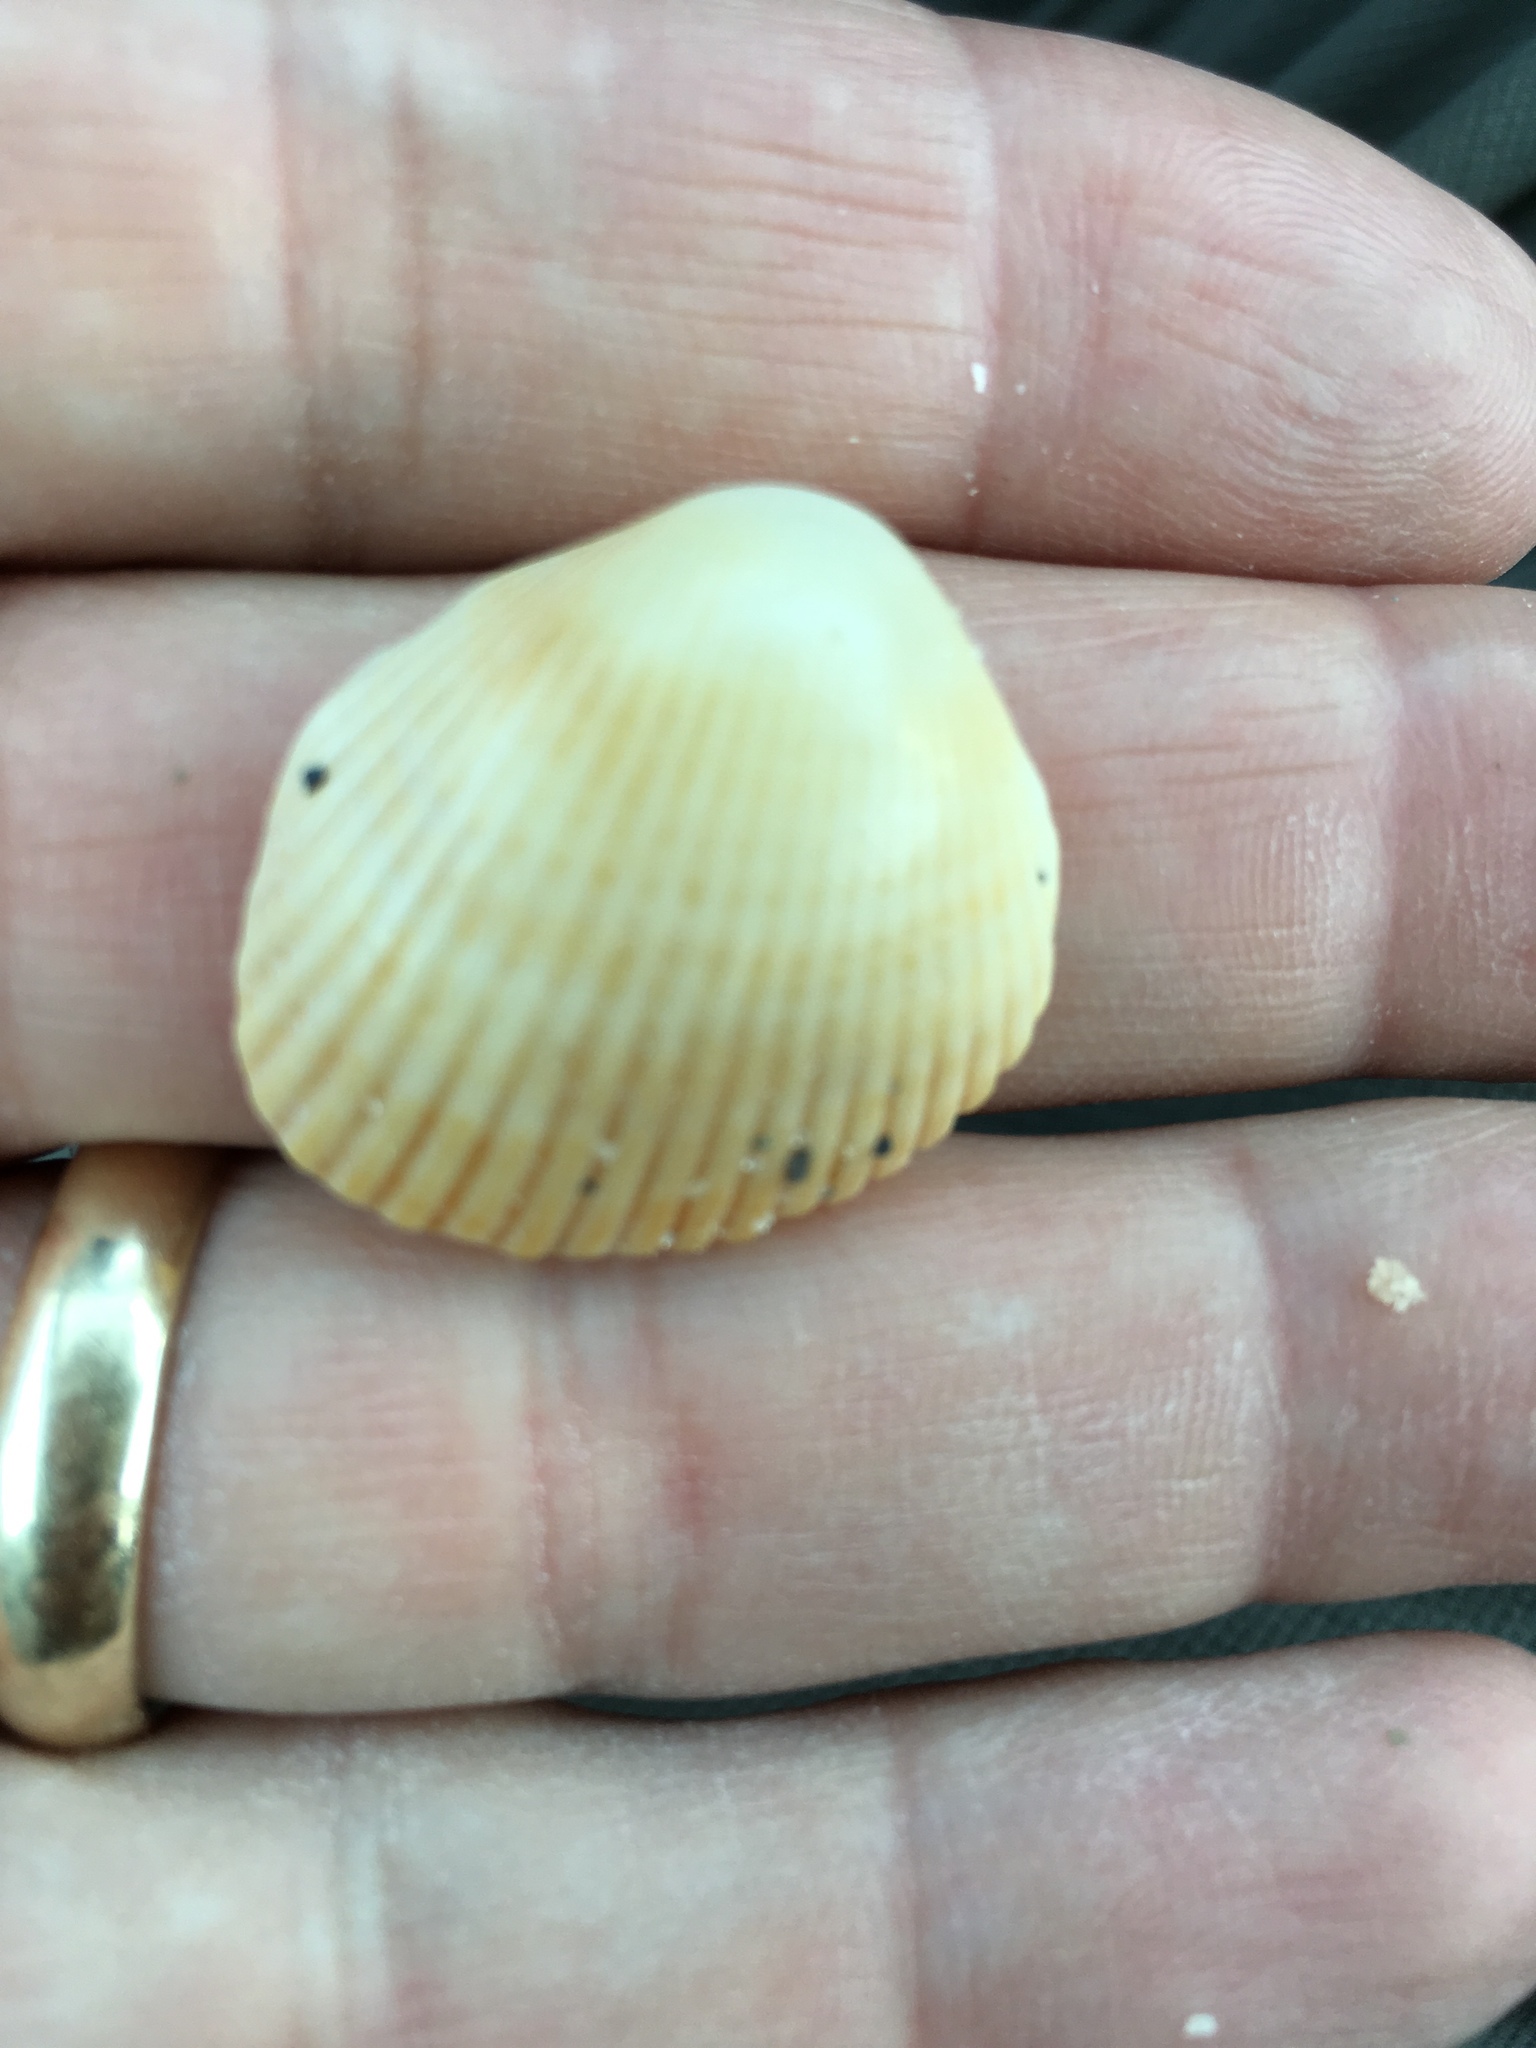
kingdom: Animalia
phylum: Mollusca
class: Bivalvia
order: Arcida
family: Arcidae
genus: Lunarca
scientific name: Lunarca ovalis
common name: Blood ark
